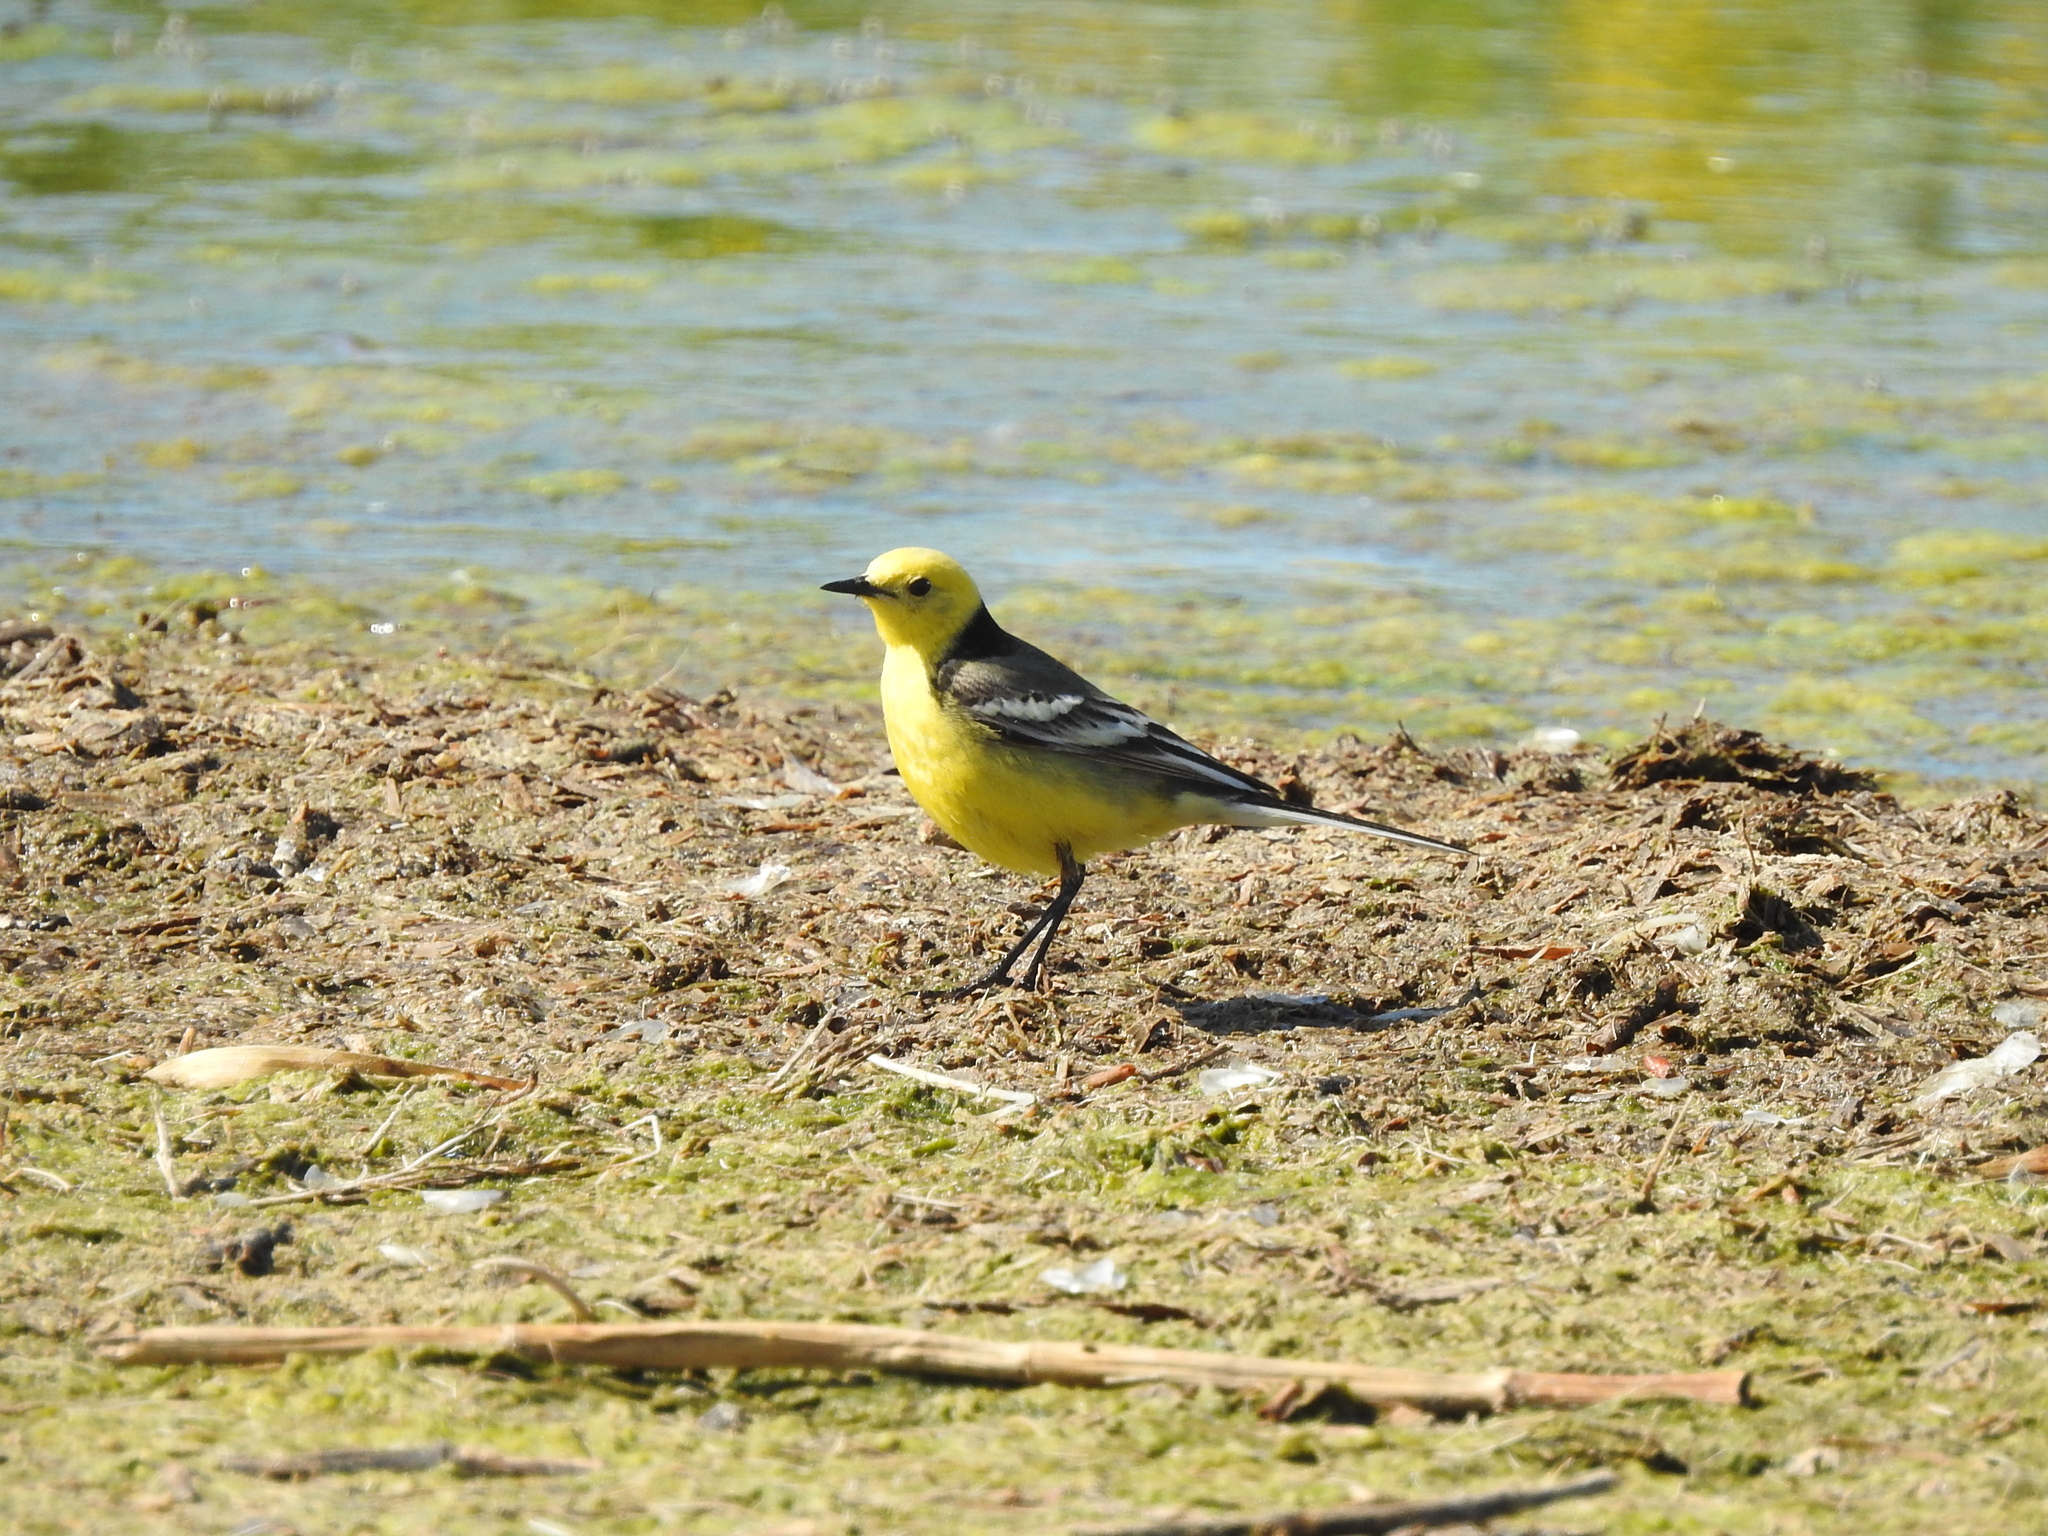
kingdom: Animalia
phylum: Chordata
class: Aves
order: Passeriformes
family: Motacillidae
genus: Motacilla
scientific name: Motacilla citreola
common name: Citrine wagtail
